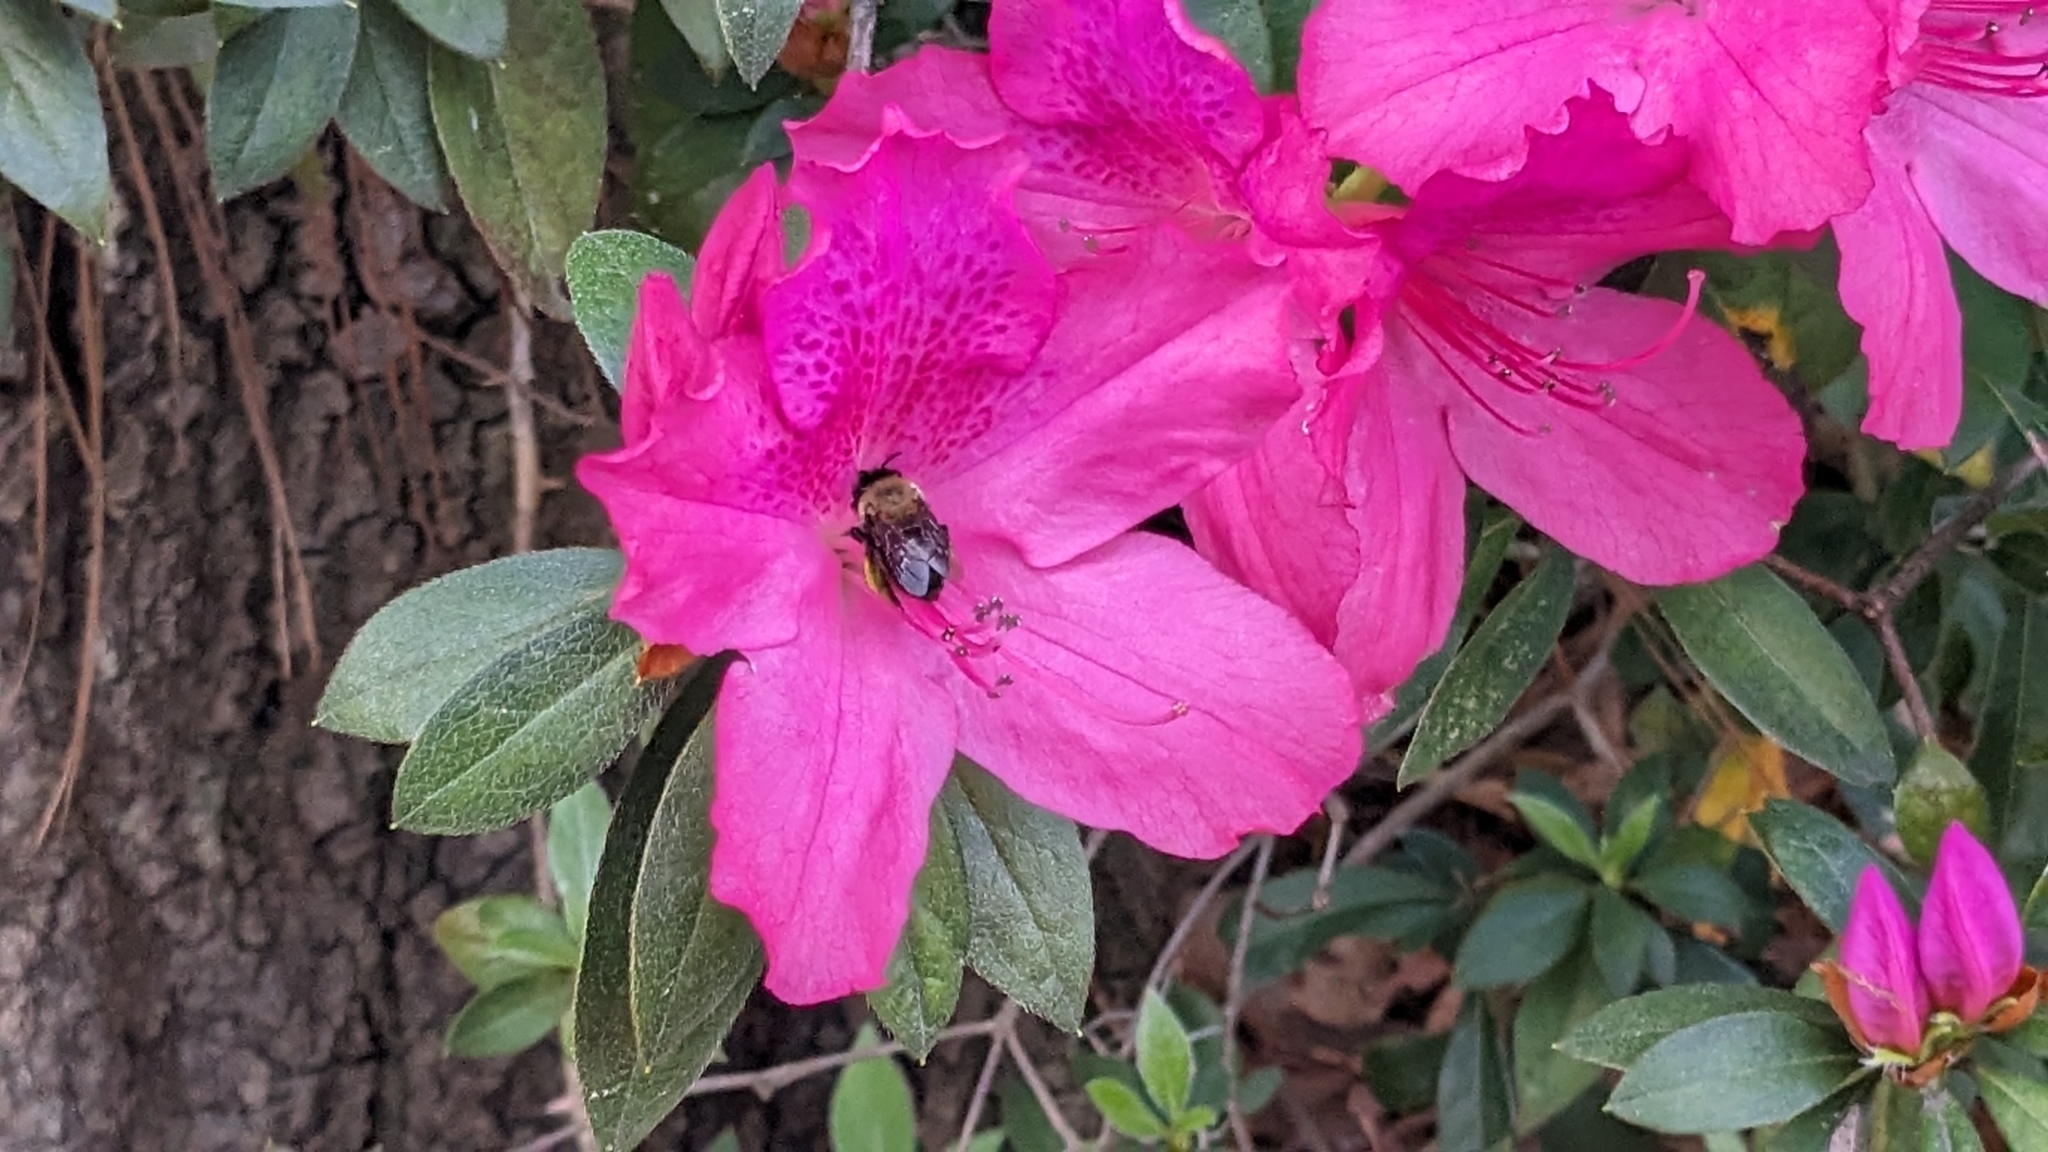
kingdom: Animalia
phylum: Arthropoda
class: Insecta
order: Hymenoptera
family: Apidae
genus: Habropoda
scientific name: Habropoda laboriosa
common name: Southeastern blueberry bee
